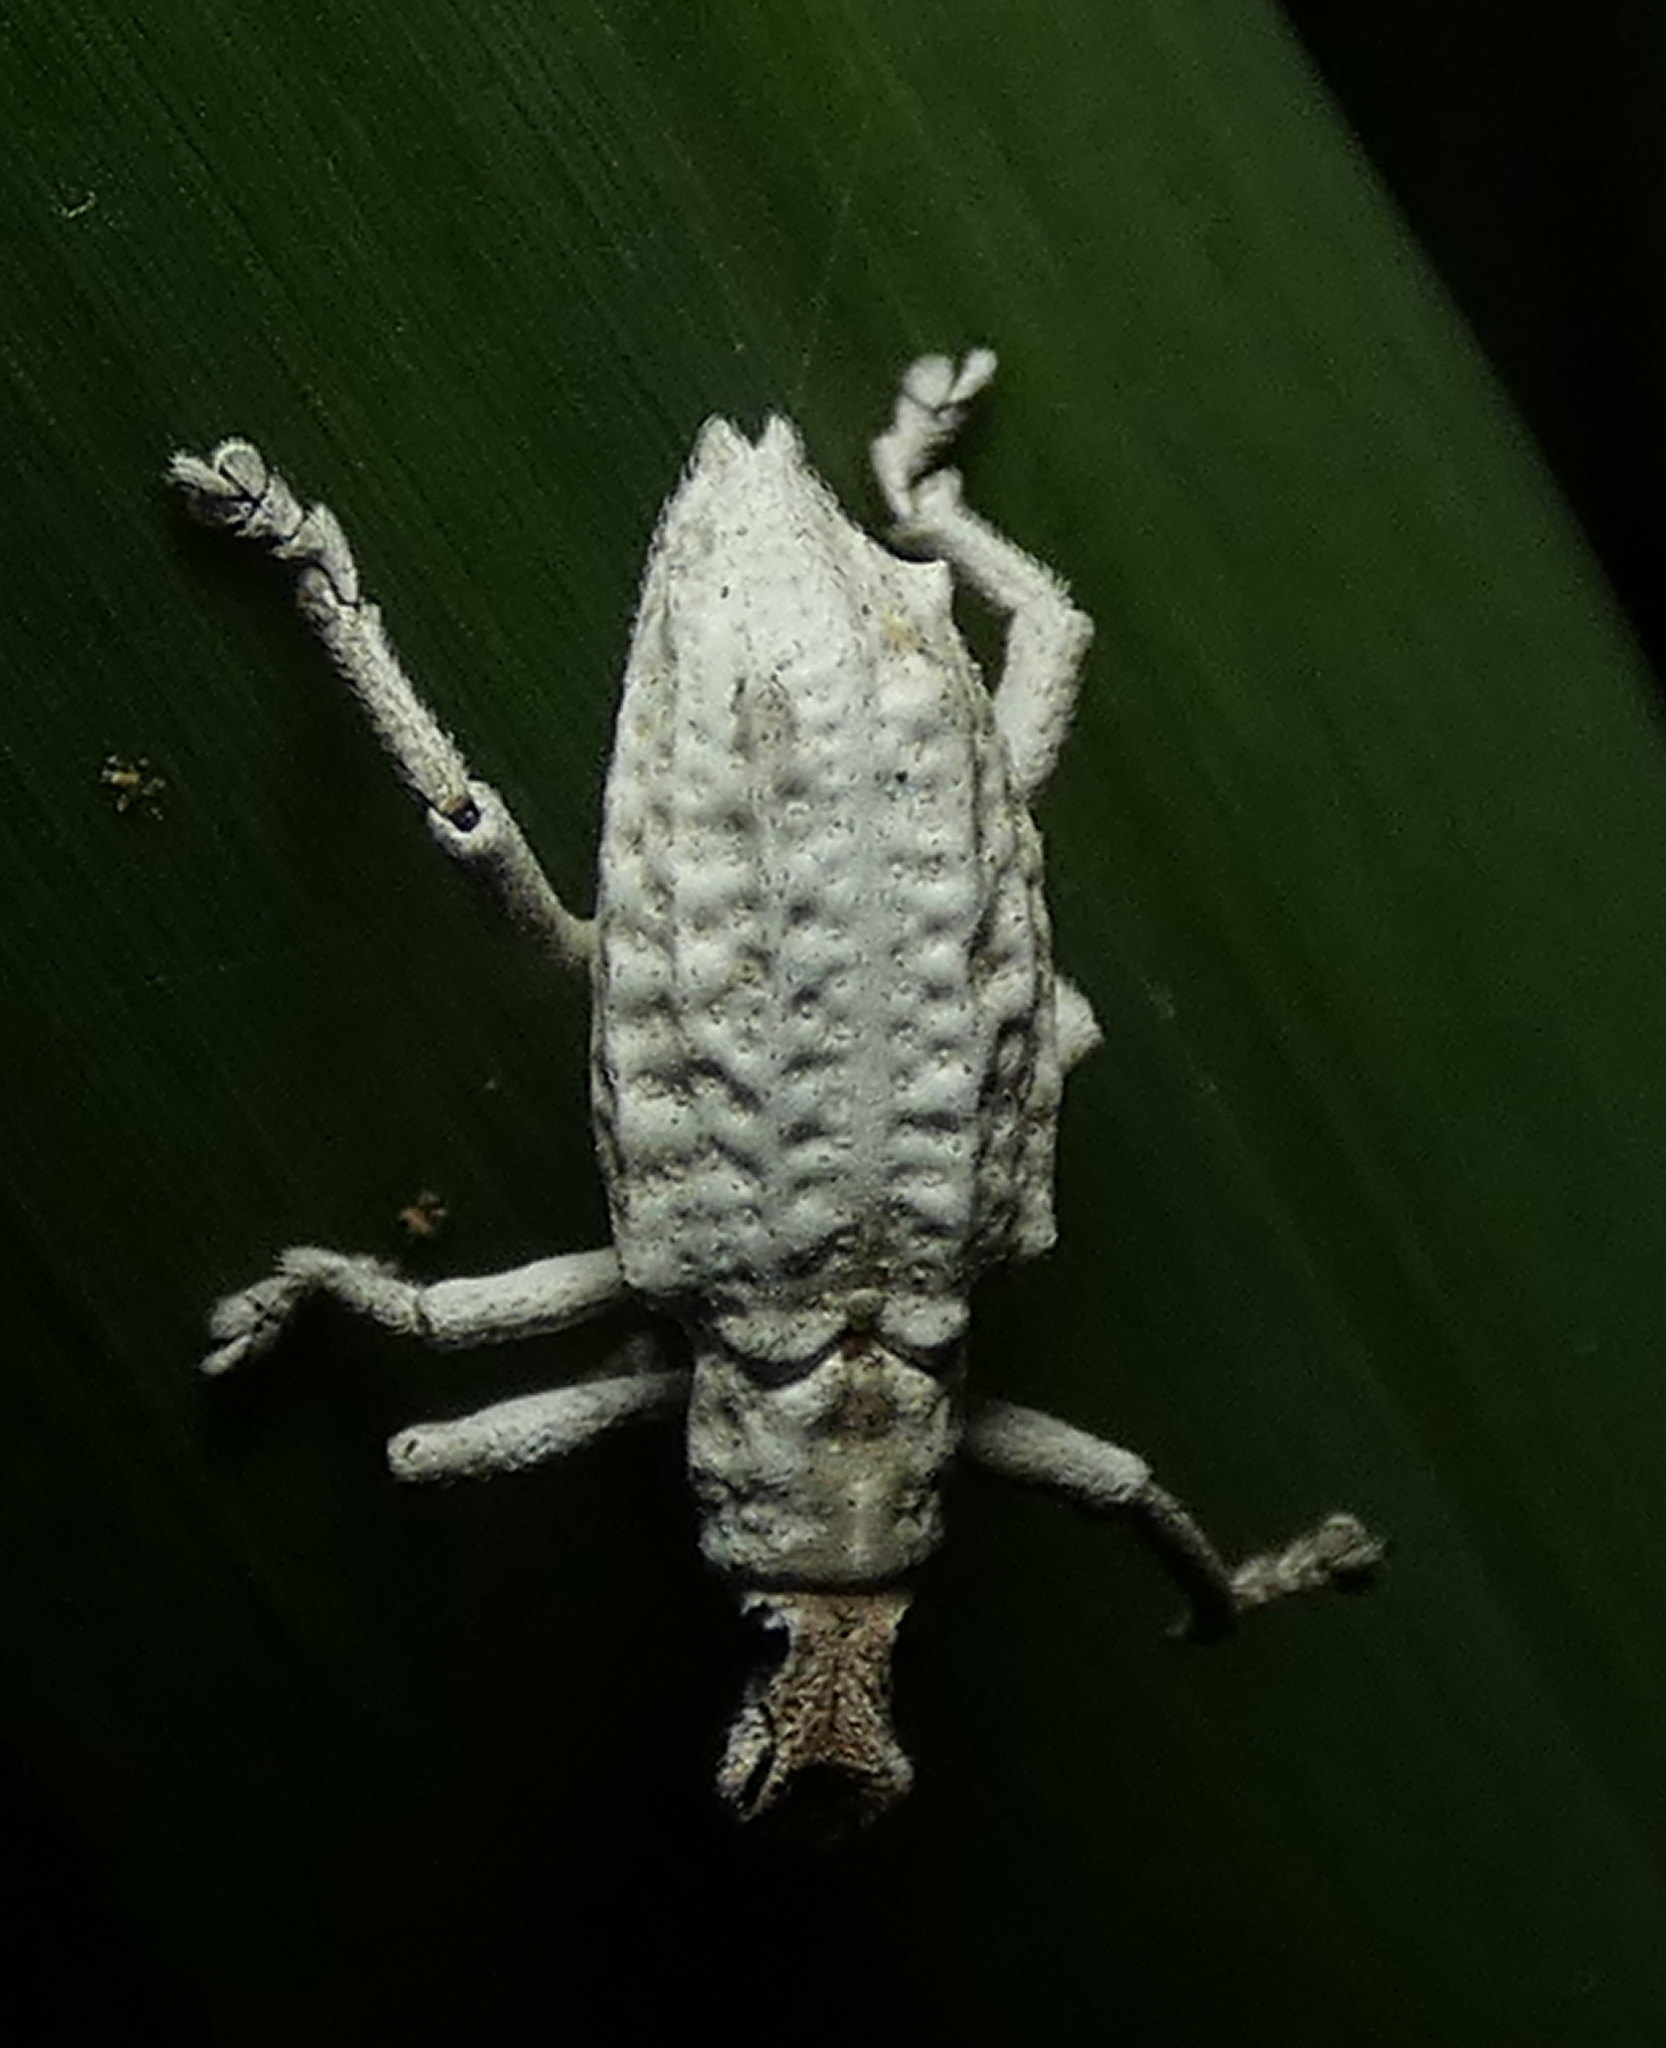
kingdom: Animalia
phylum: Arthropoda
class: Insecta
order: Coleoptera
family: Curculionidae
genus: Compsus
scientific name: Compsus niveus
